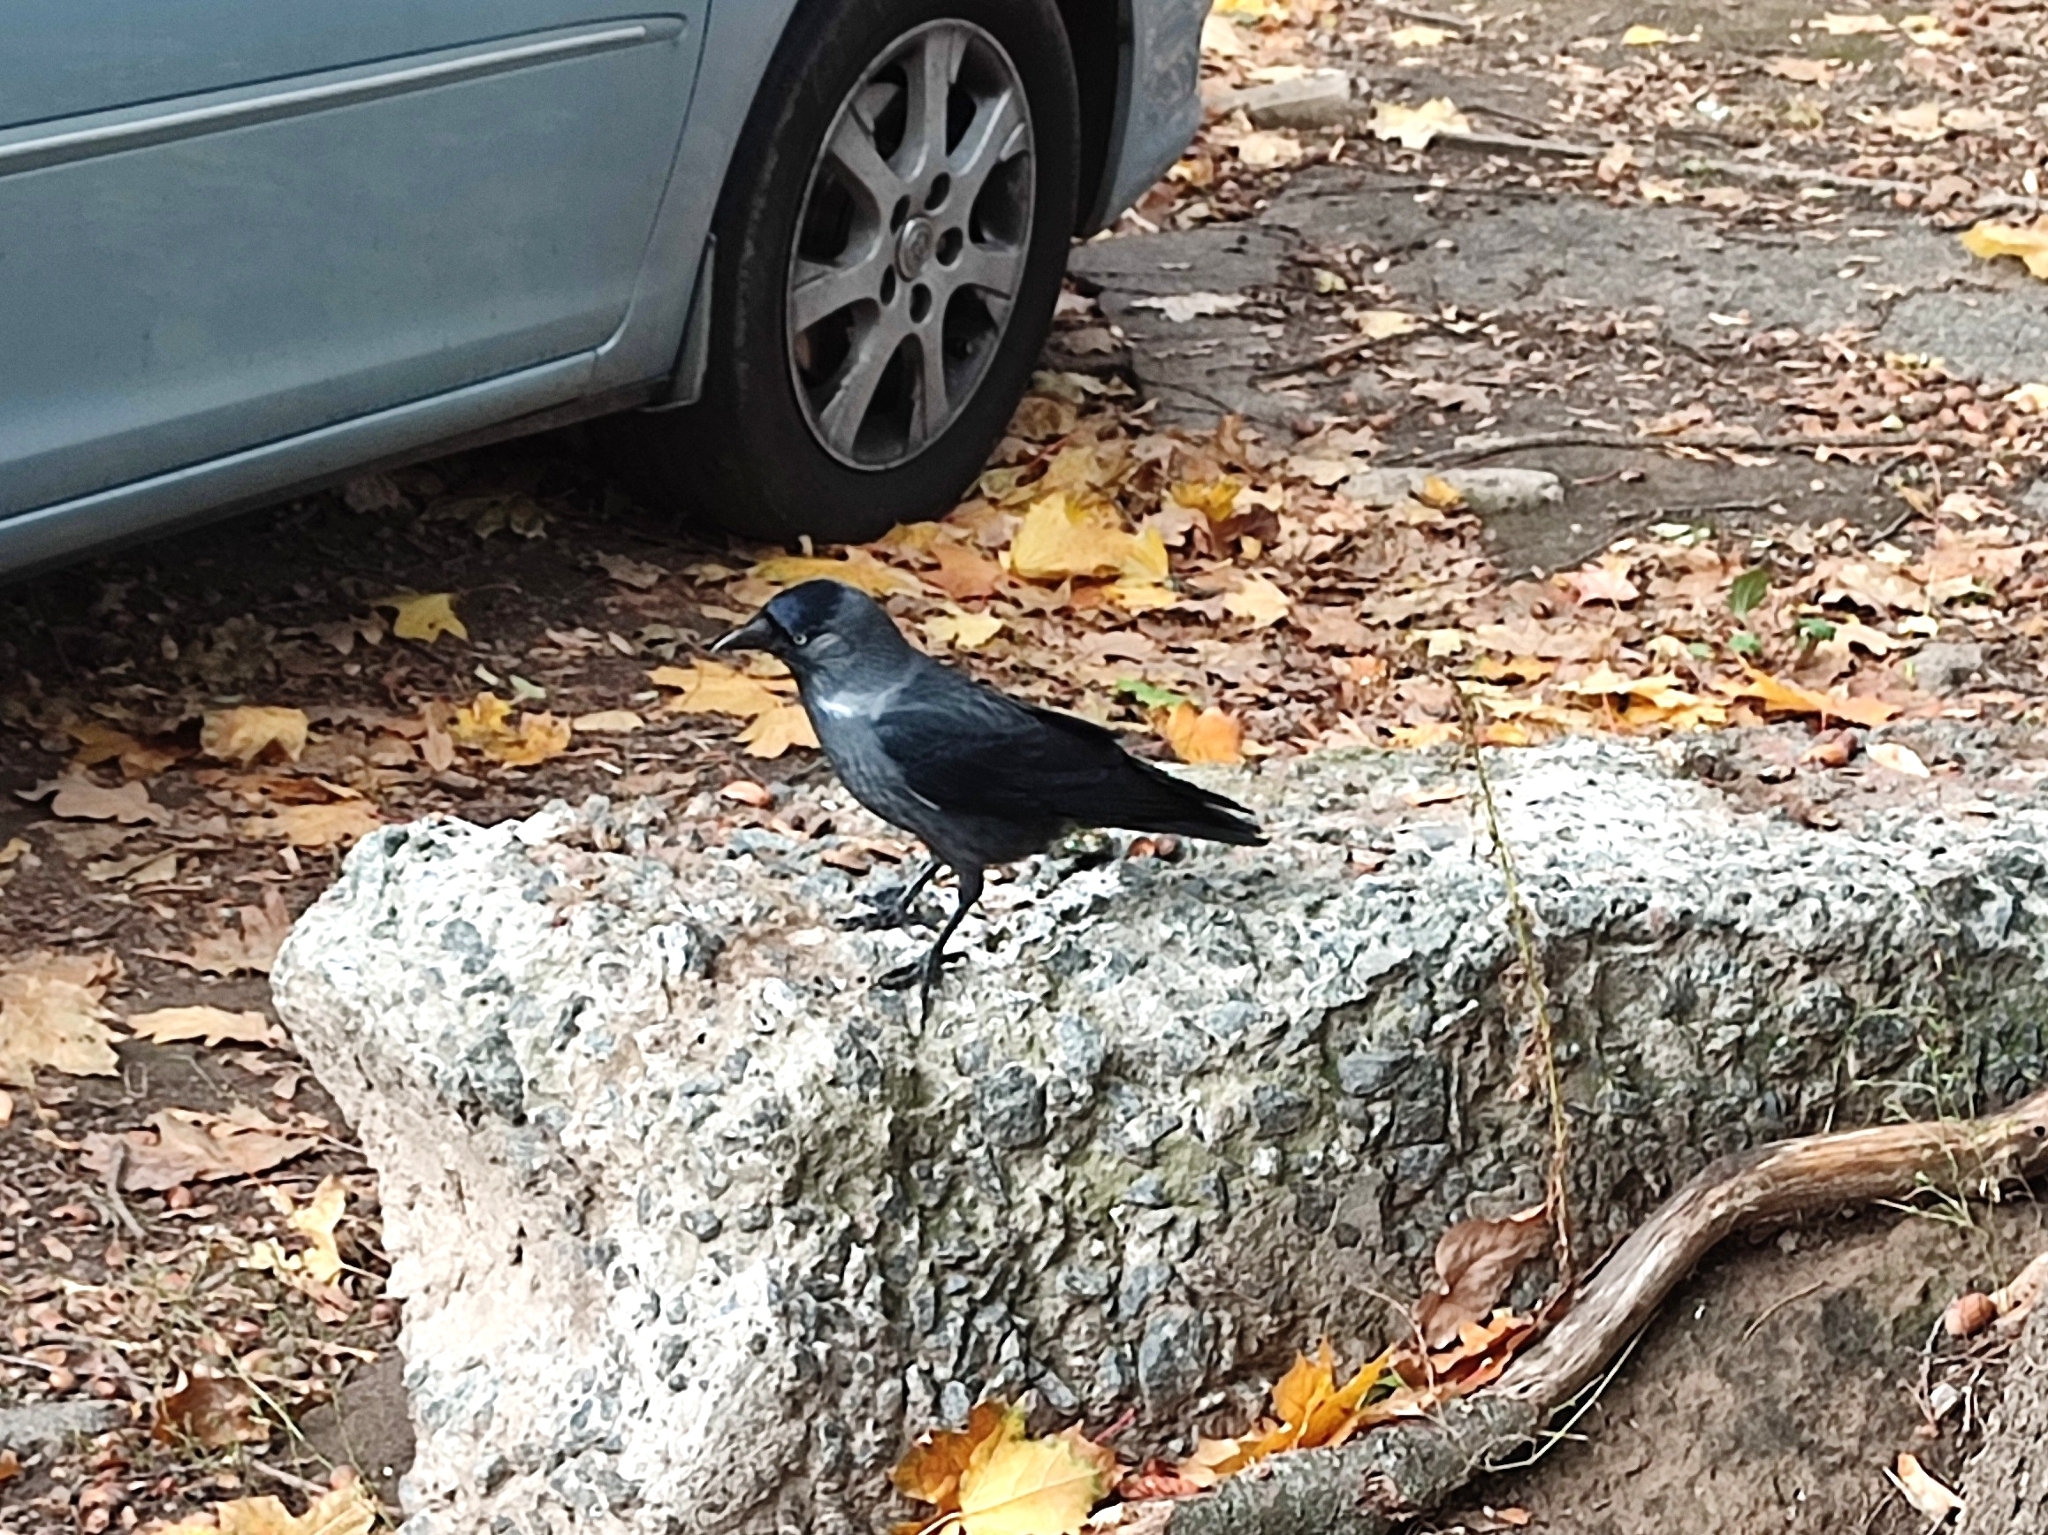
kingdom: Animalia
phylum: Chordata
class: Aves
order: Passeriformes
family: Corvidae
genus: Coloeus
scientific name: Coloeus monedula
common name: Western jackdaw
